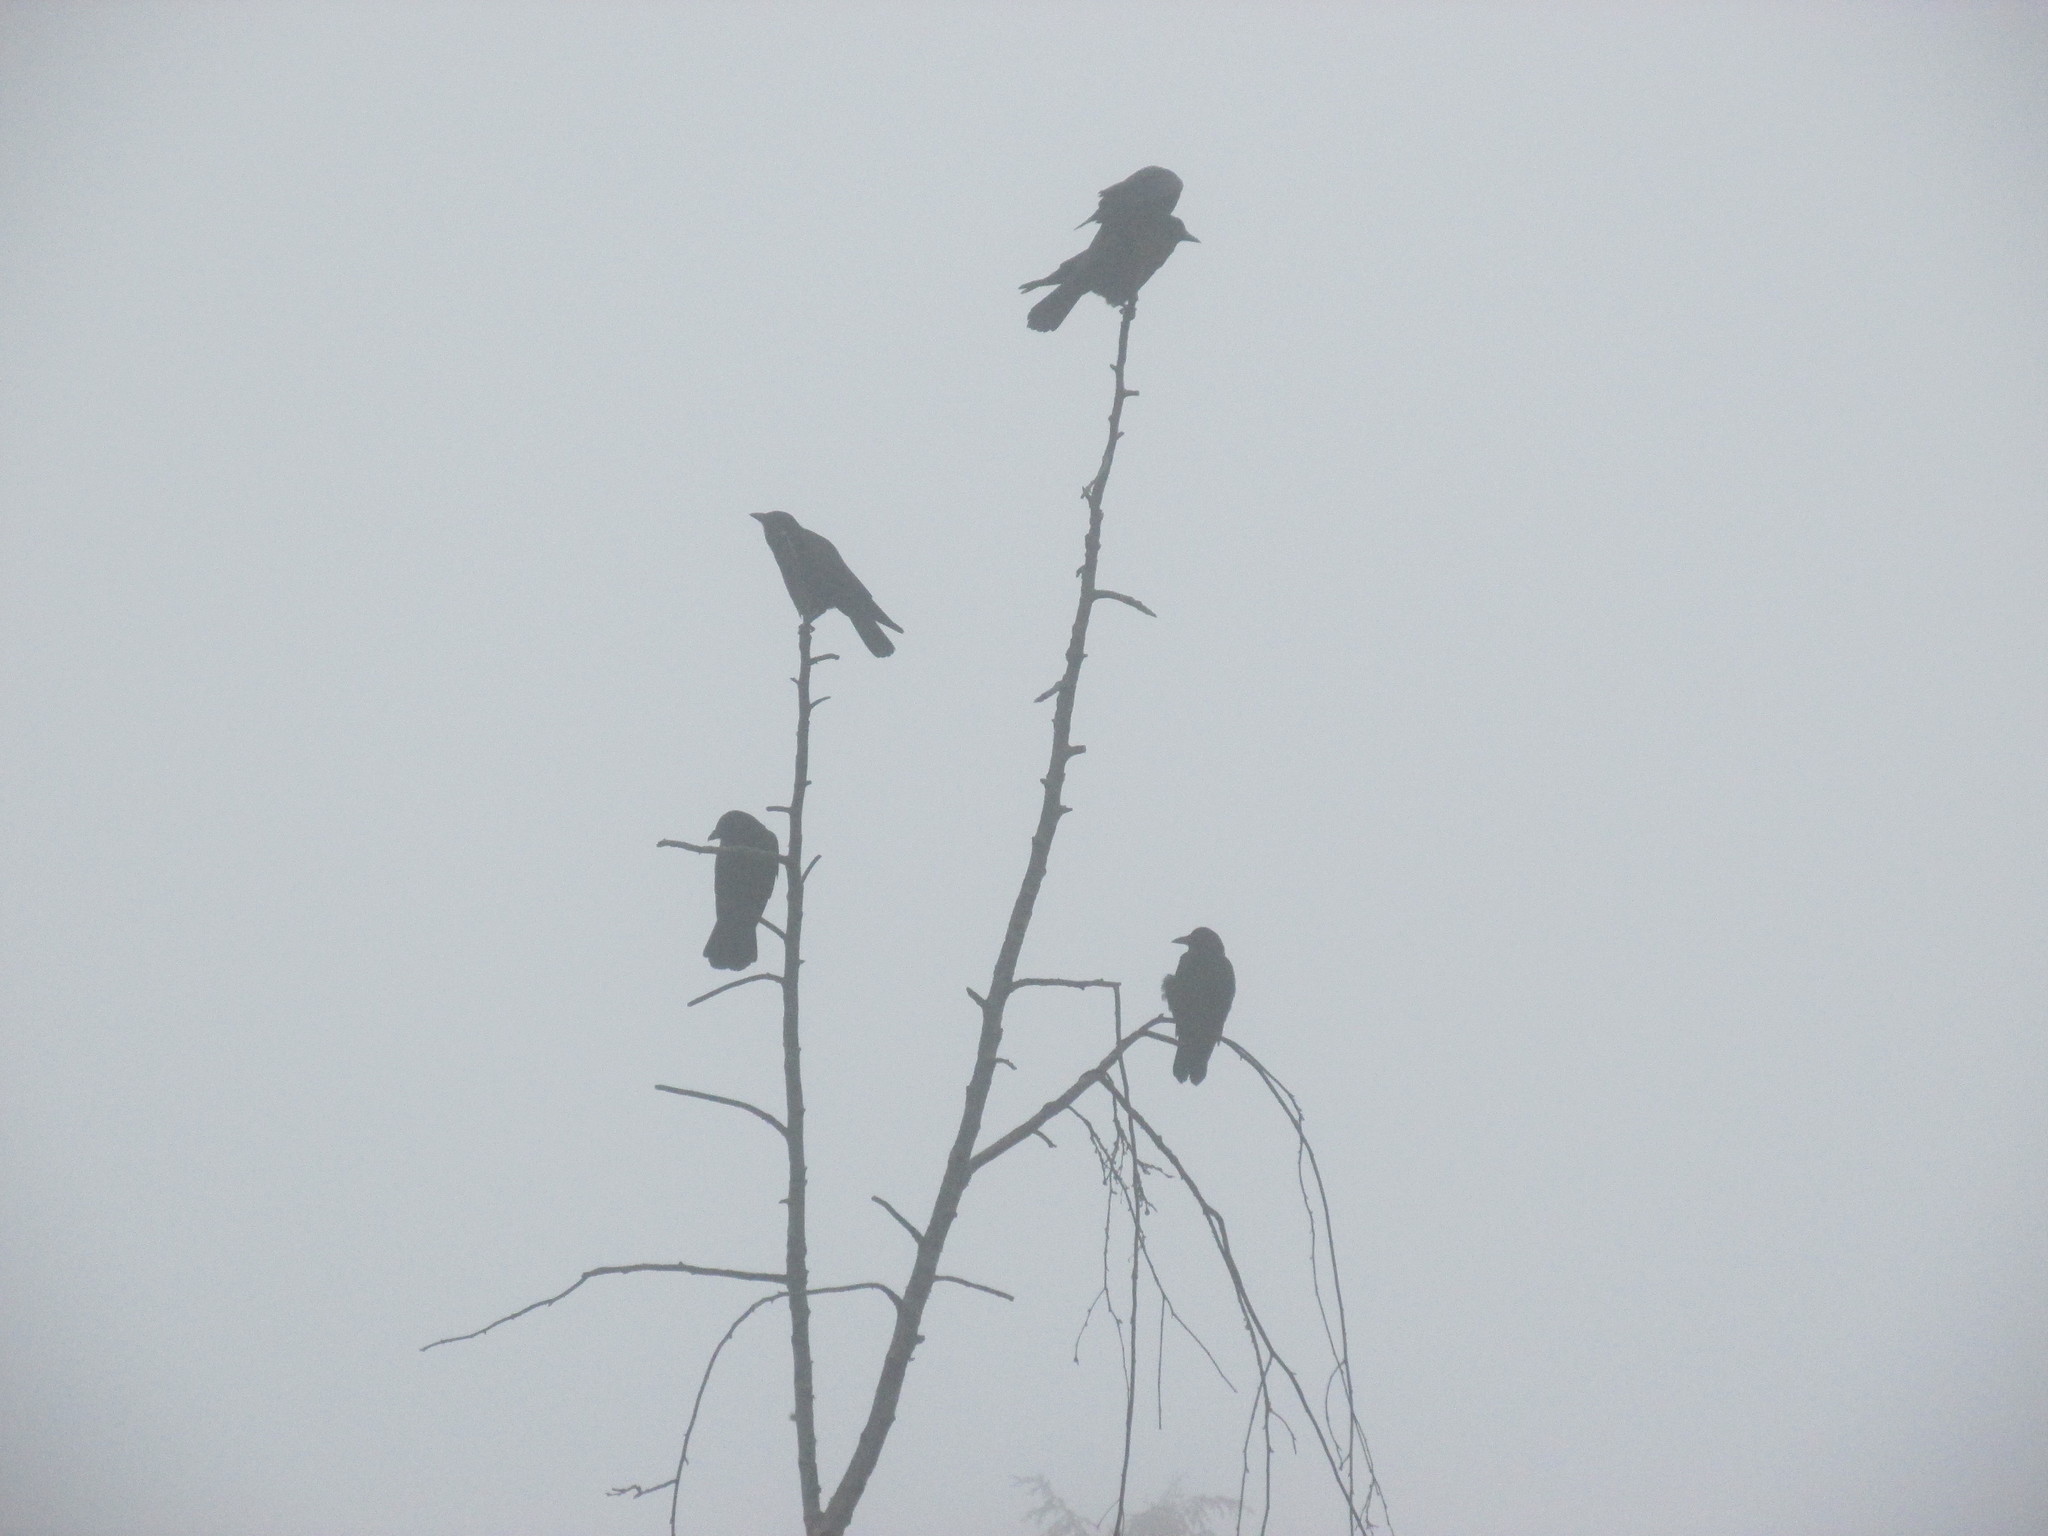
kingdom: Animalia
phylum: Chordata
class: Aves
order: Passeriformes
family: Corvidae
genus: Corvus
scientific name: Corvus brachyrhynchos
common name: American crow
